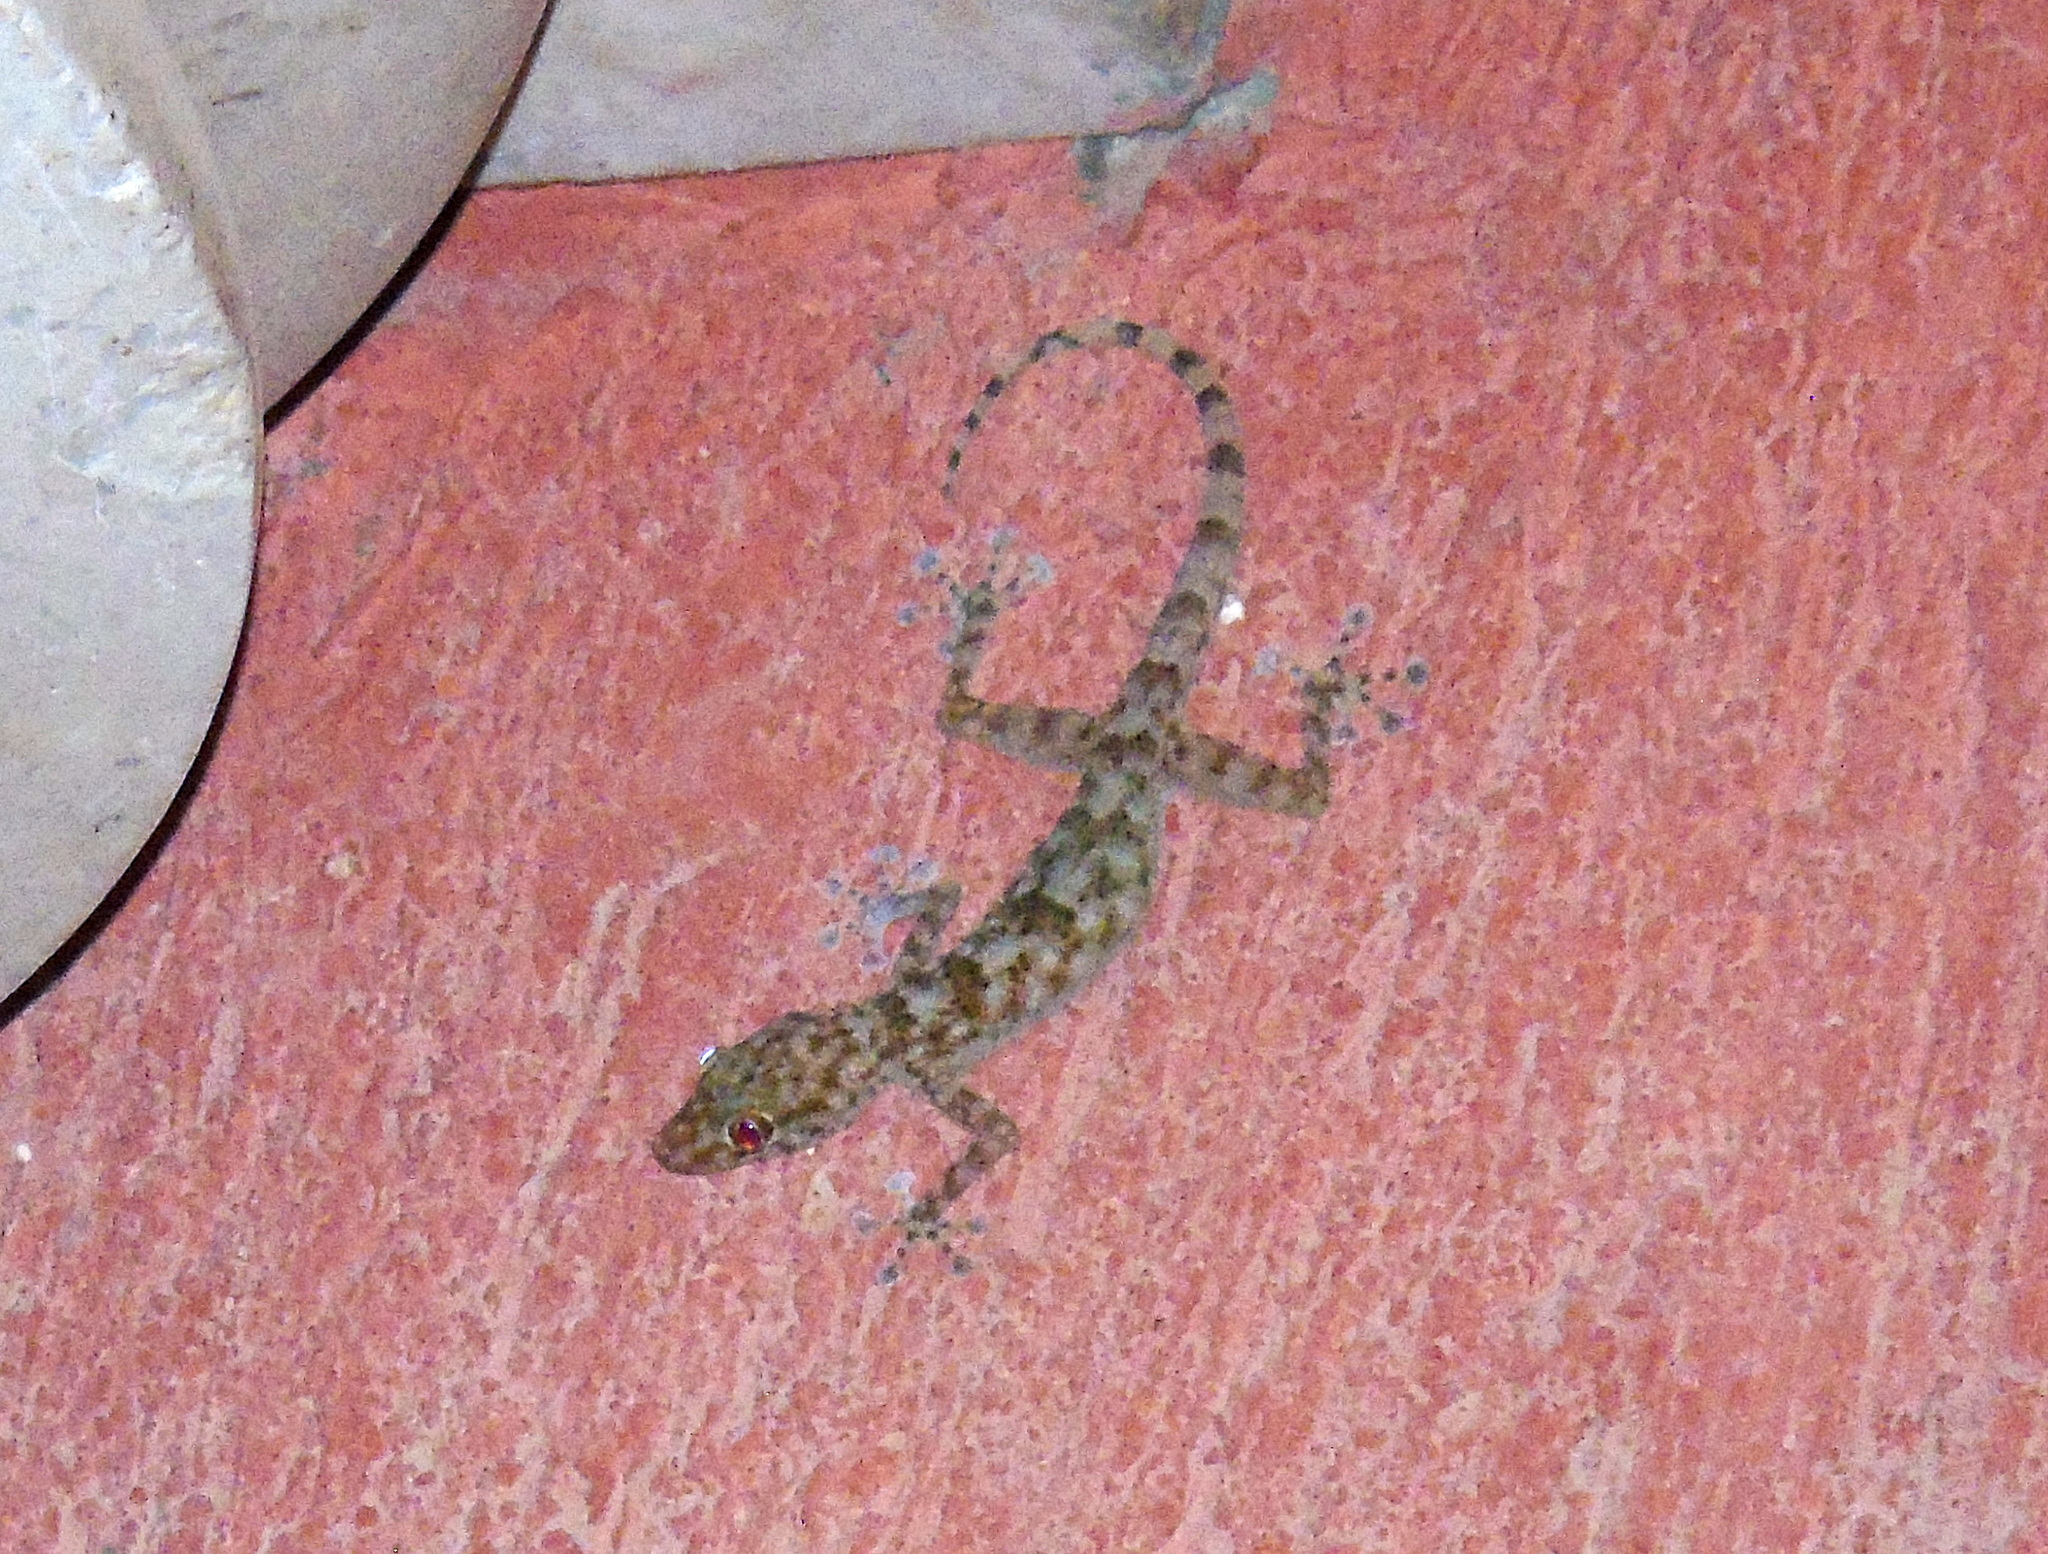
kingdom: Animalia
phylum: Chordata
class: Squamata
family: Phyllodactylidae
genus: Ptyodactylus
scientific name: Ptyodactylus hasselquistii
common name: Hasselquist’s fan-footed gecko
